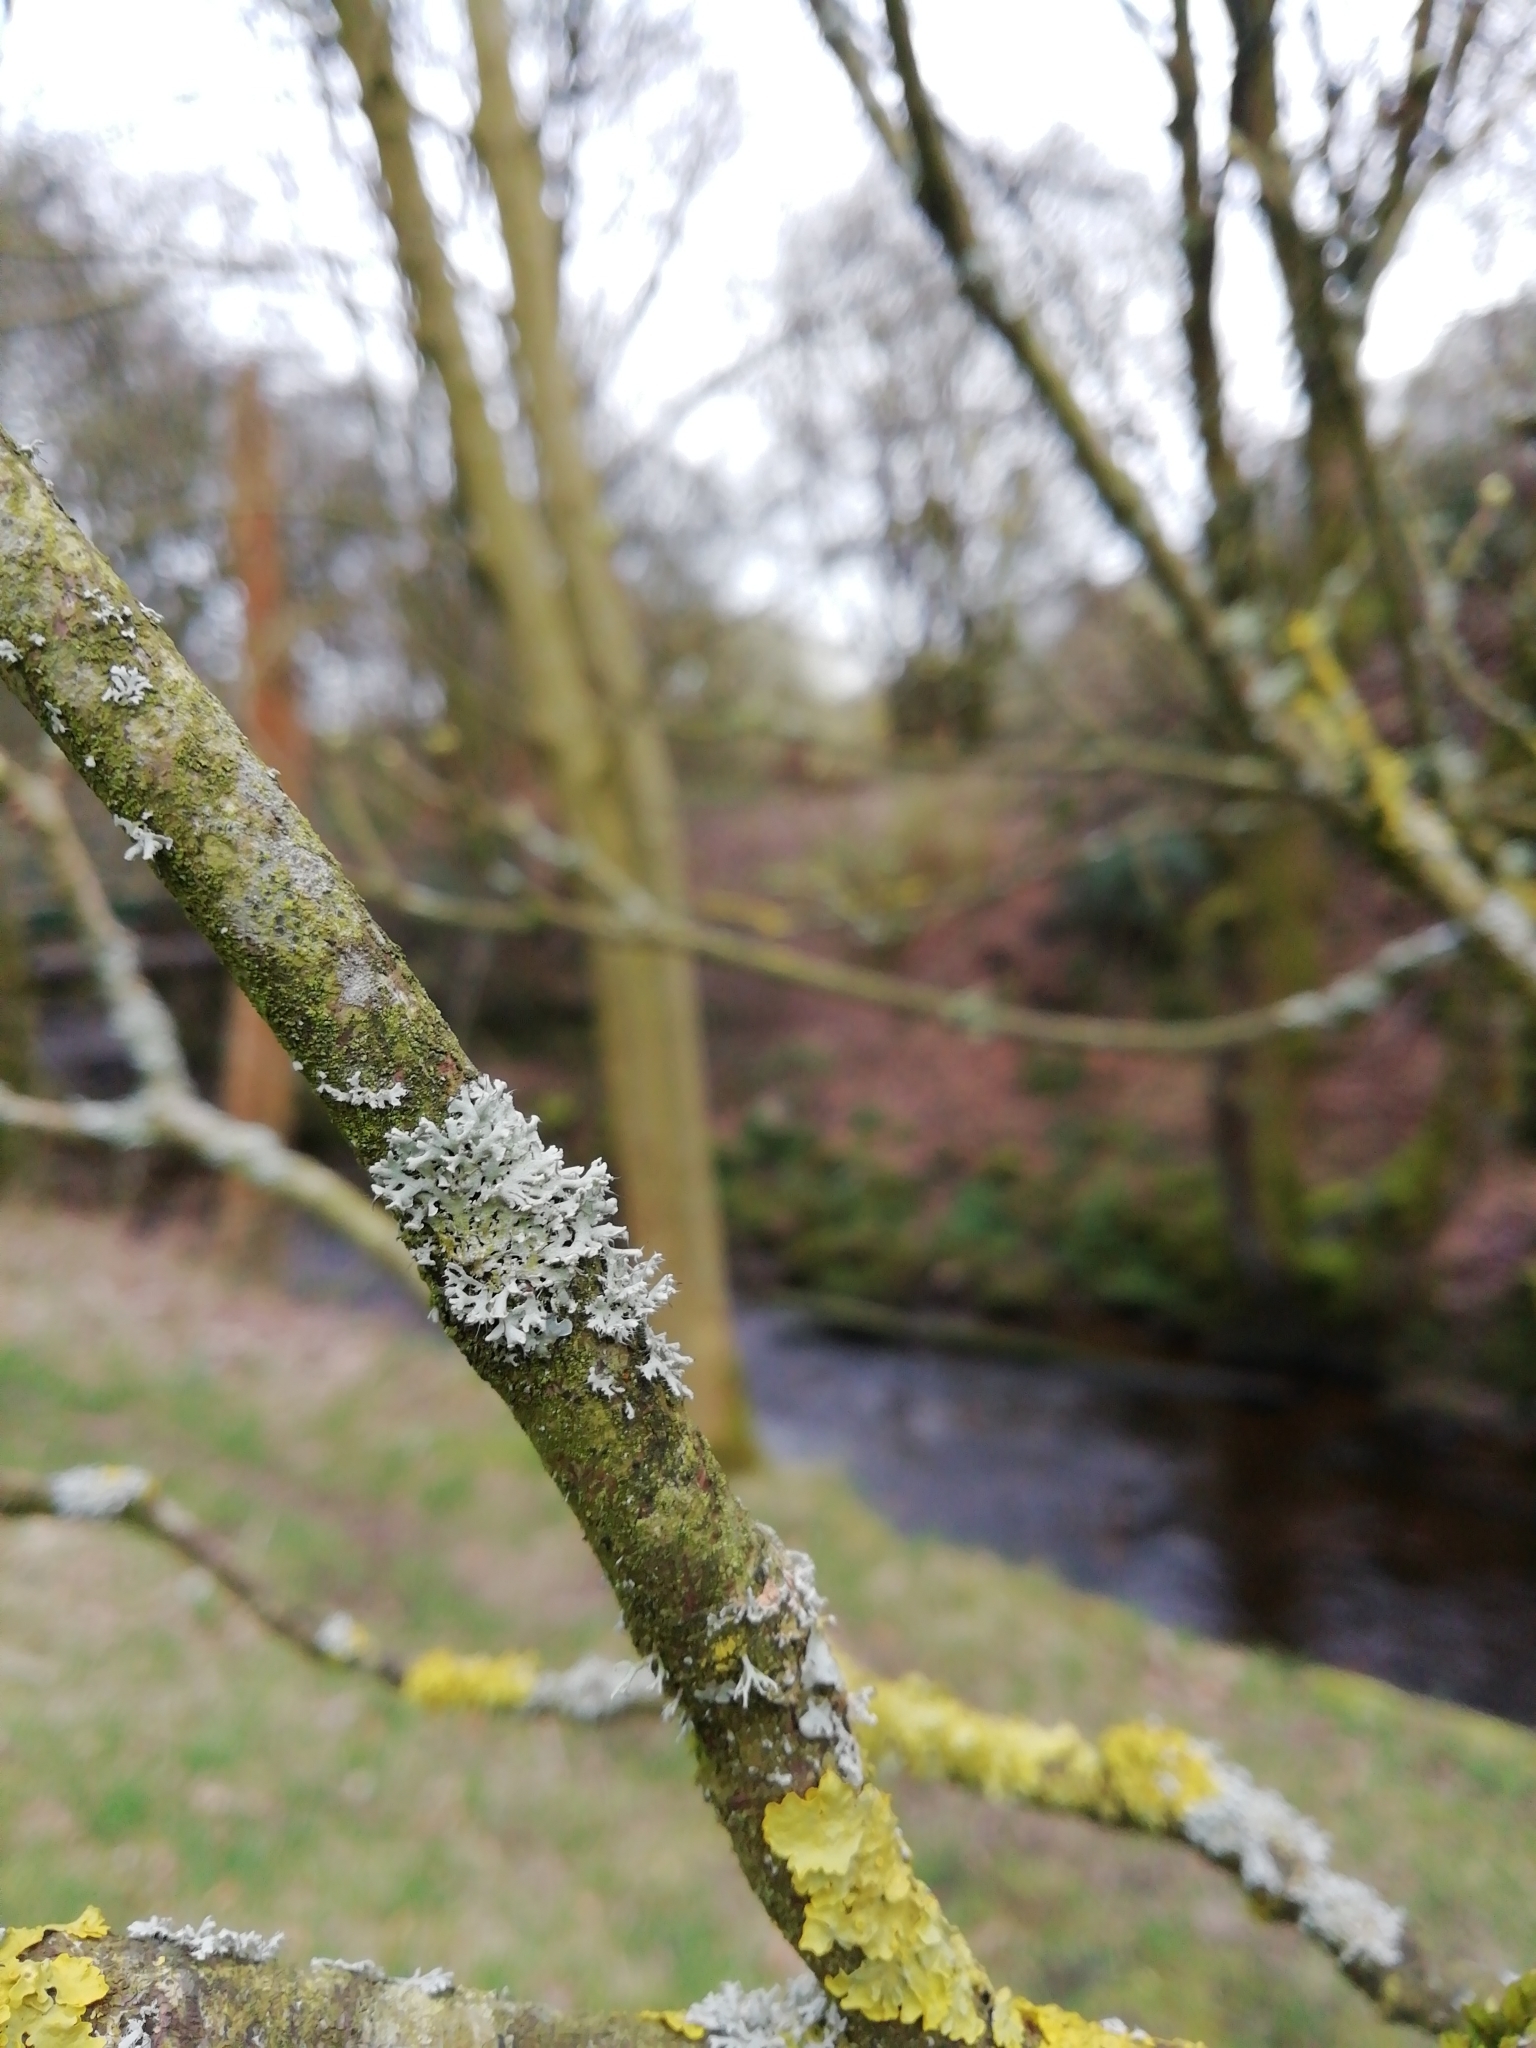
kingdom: Fungi
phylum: Ascomycota
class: Lecanoromycetes
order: Caliciales
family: Physciaceae
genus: Physcia
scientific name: Physcia adscendens
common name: Hooded rosette lichen
